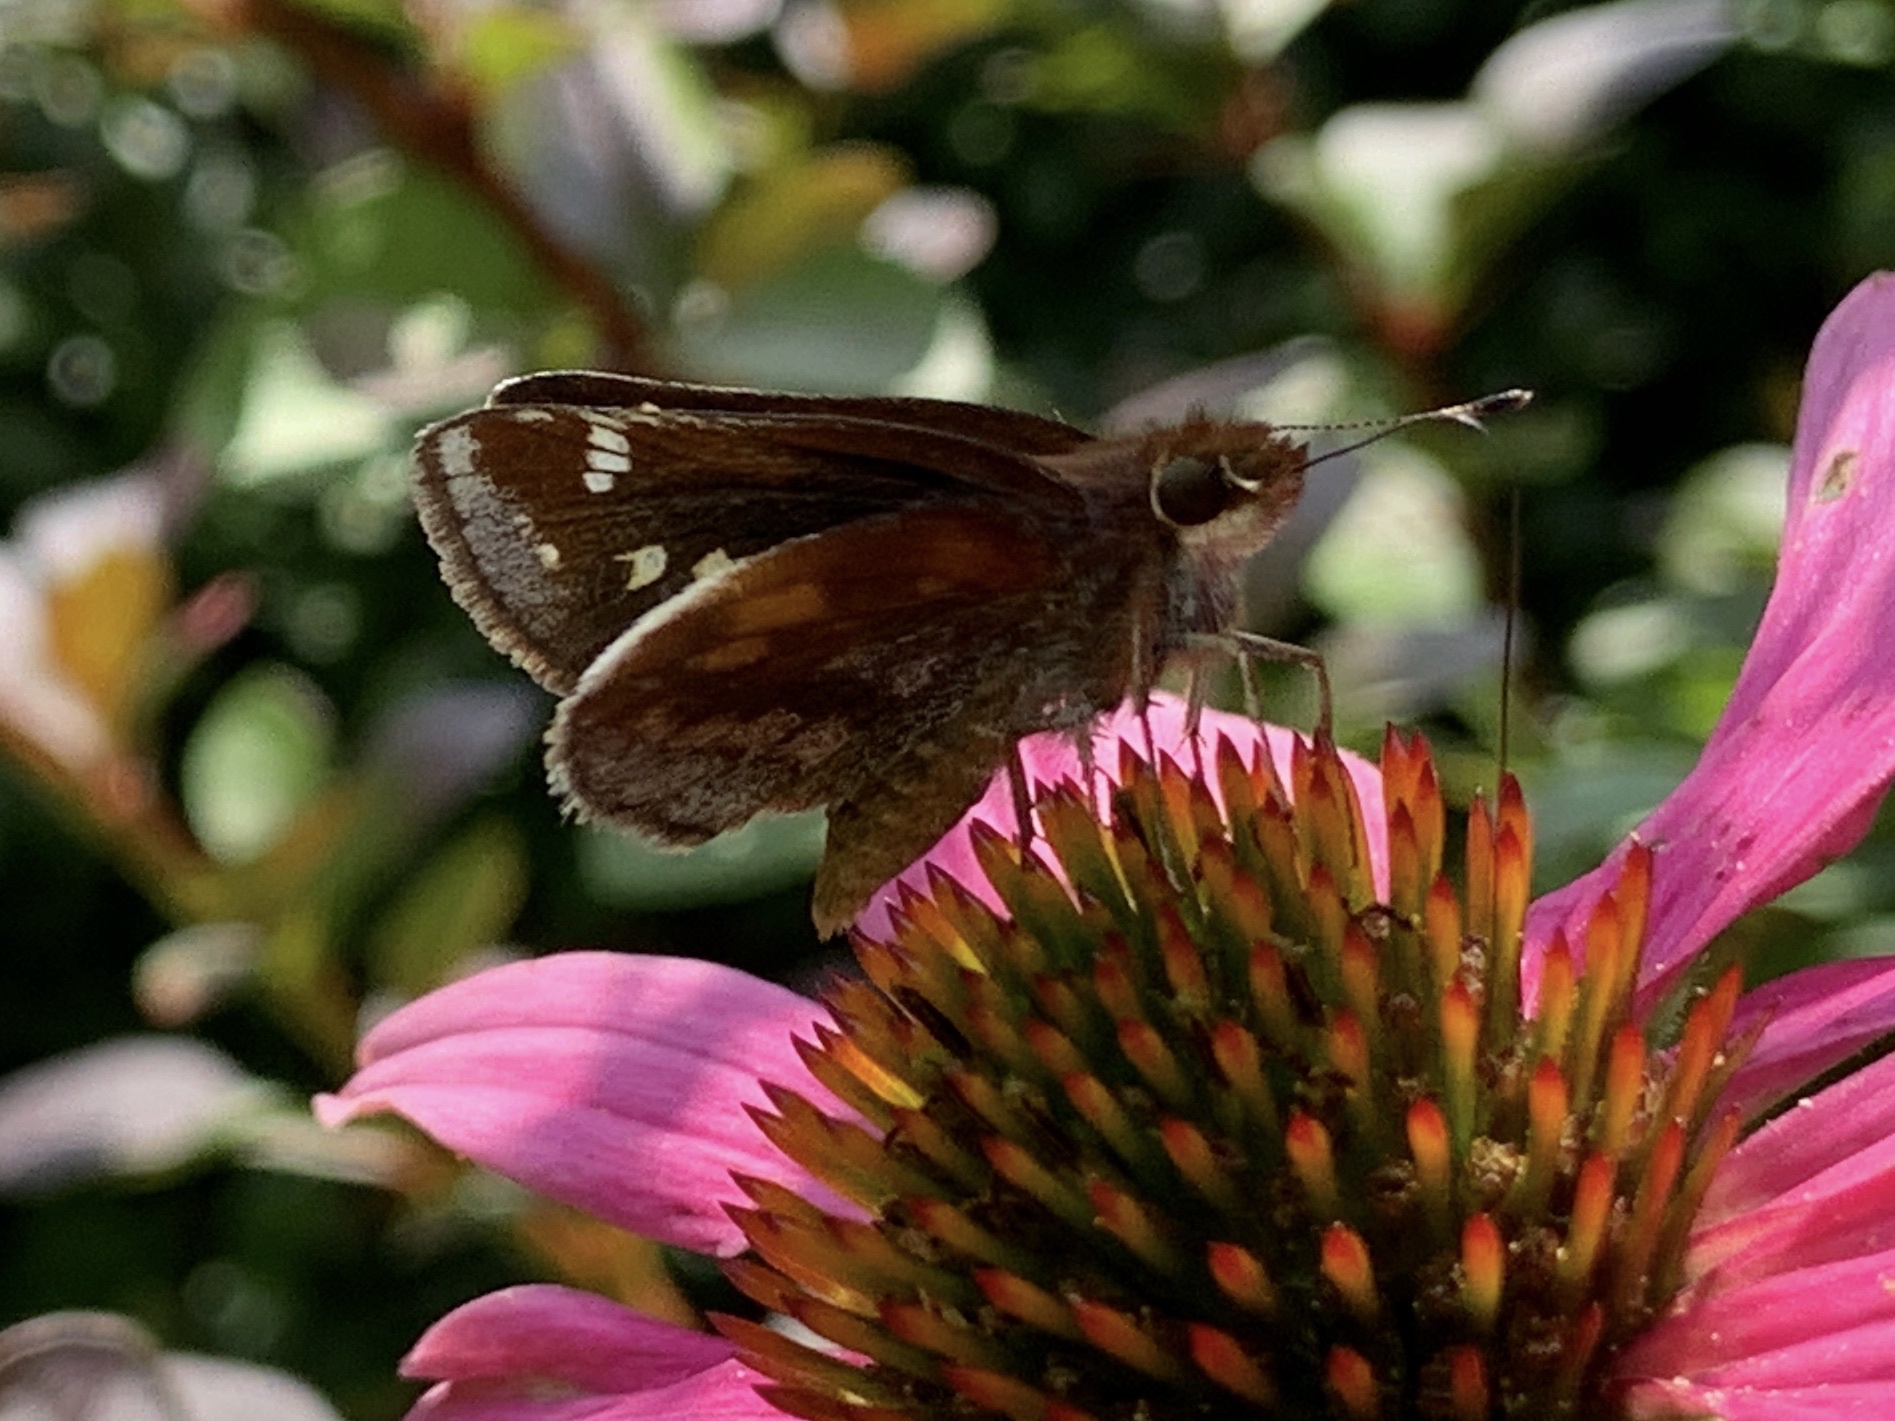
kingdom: Animalia
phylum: Arthropoda
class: Insecta
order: Lepidoptera
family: Hesperiidae
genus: Lon
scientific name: Lon zabulon
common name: Zabulon skipper
